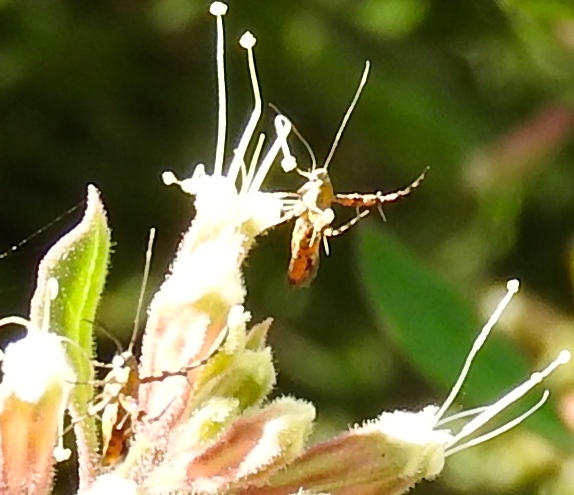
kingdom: Animalia
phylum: Arthropoda
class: Insecta
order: Lepidoptera
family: Heliodinidae
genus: Heliodines
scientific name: Heliodines
